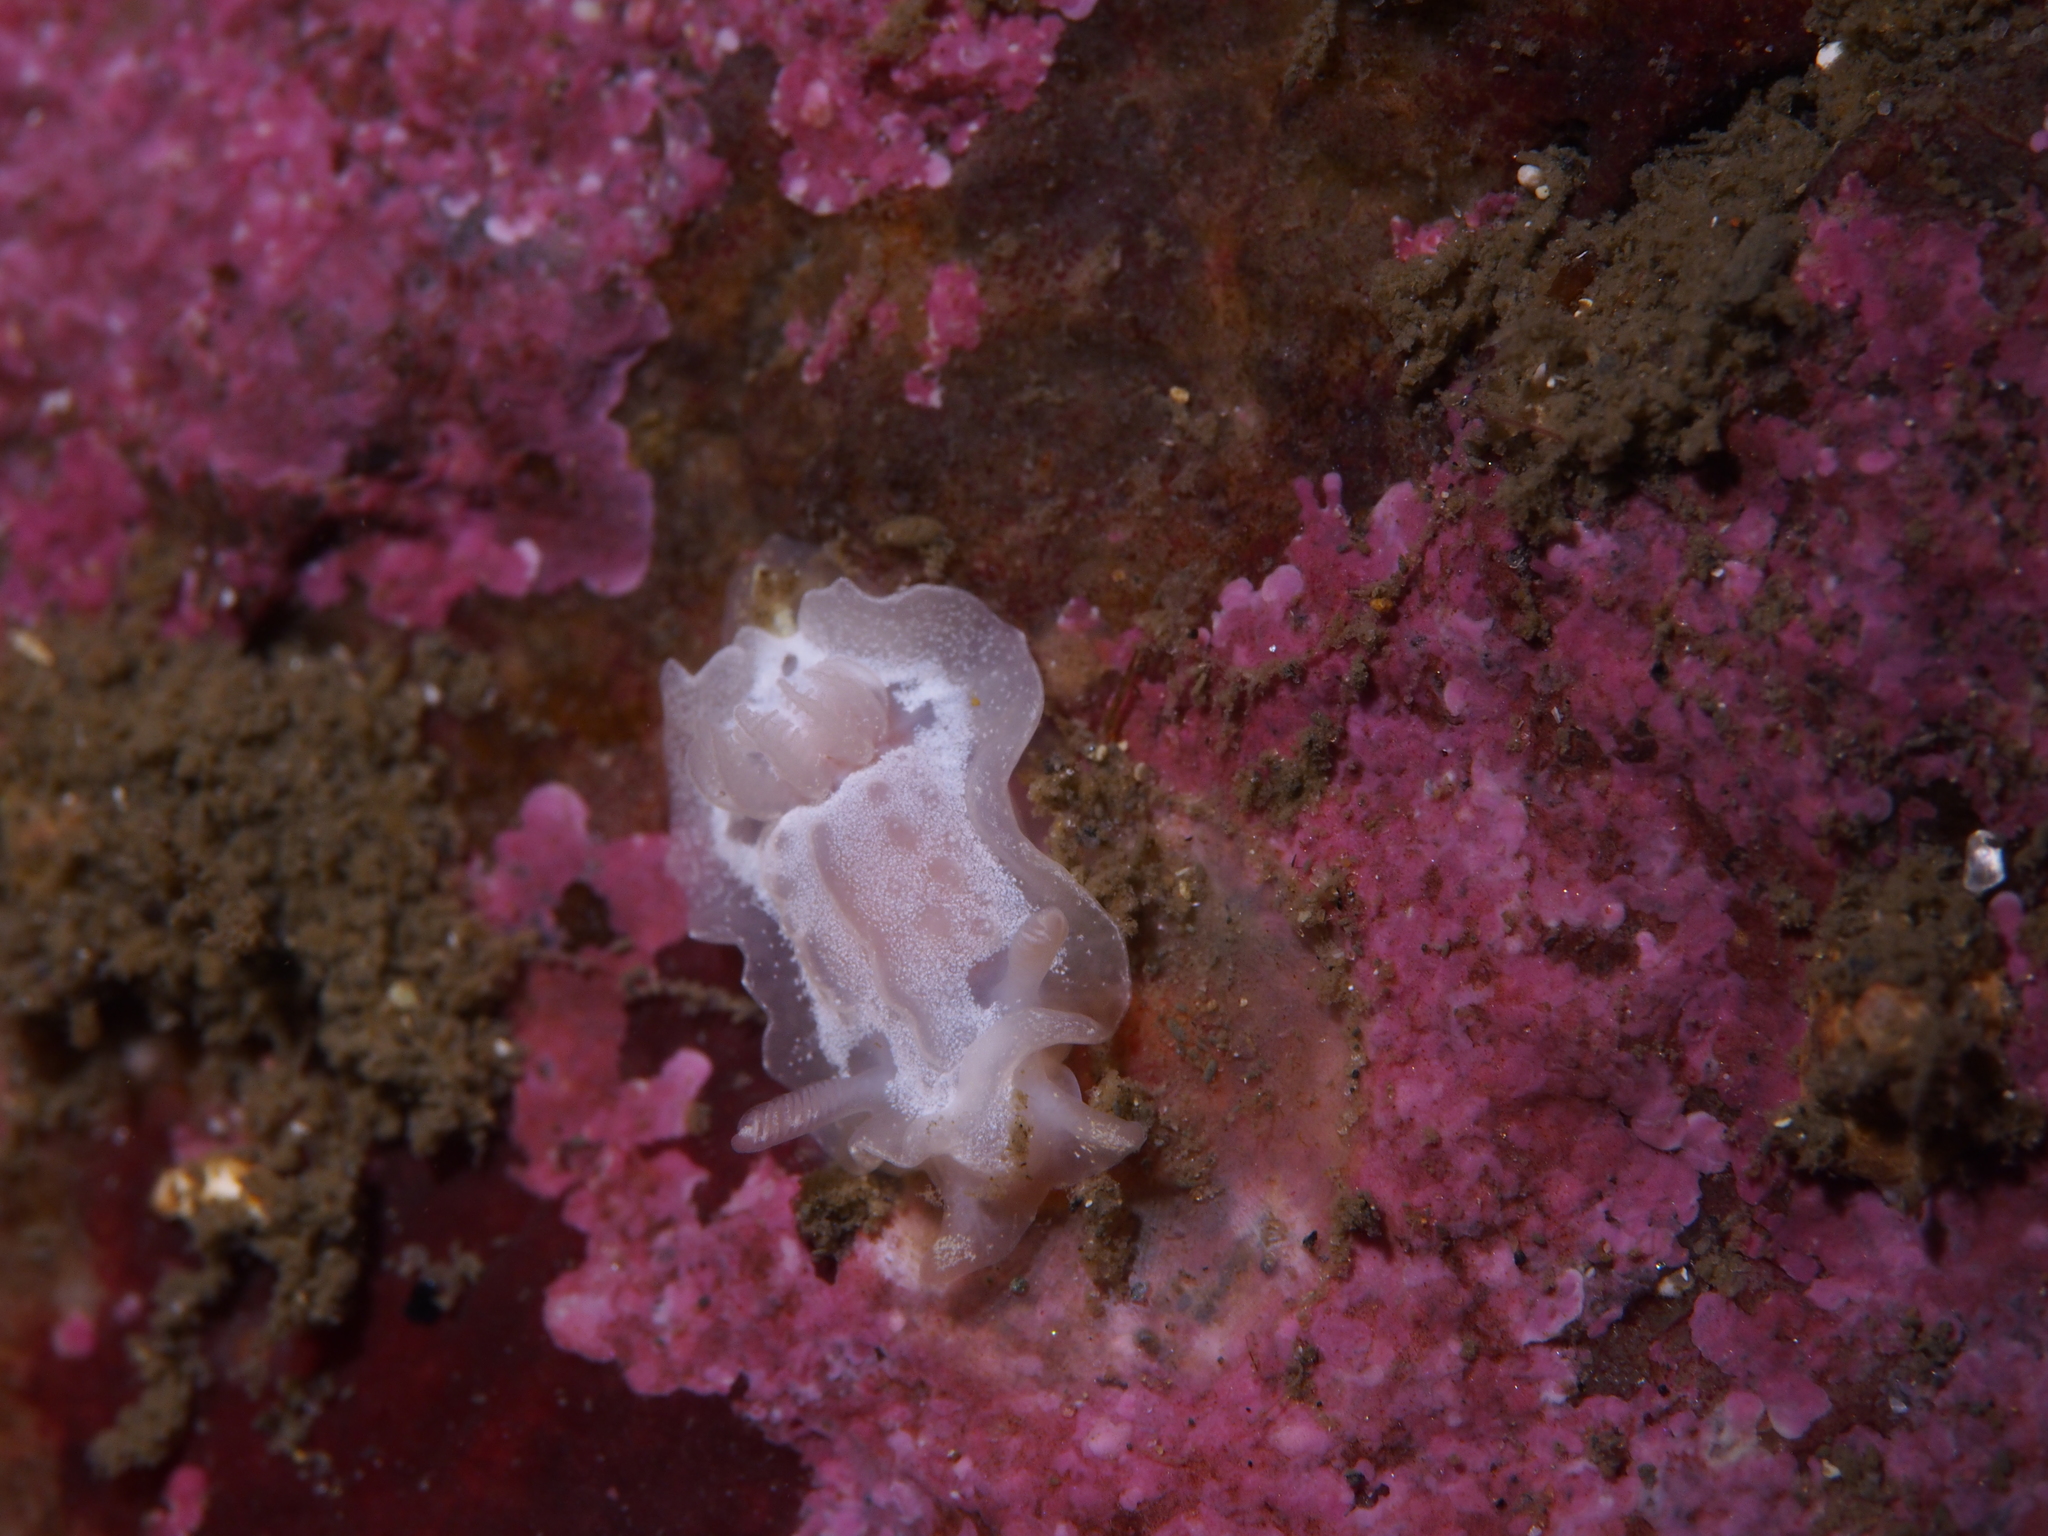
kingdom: Animalia
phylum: Mollusca
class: Gastropoda
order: Nudibranchia
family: Goniodorididae
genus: Okenia
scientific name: Okenia
